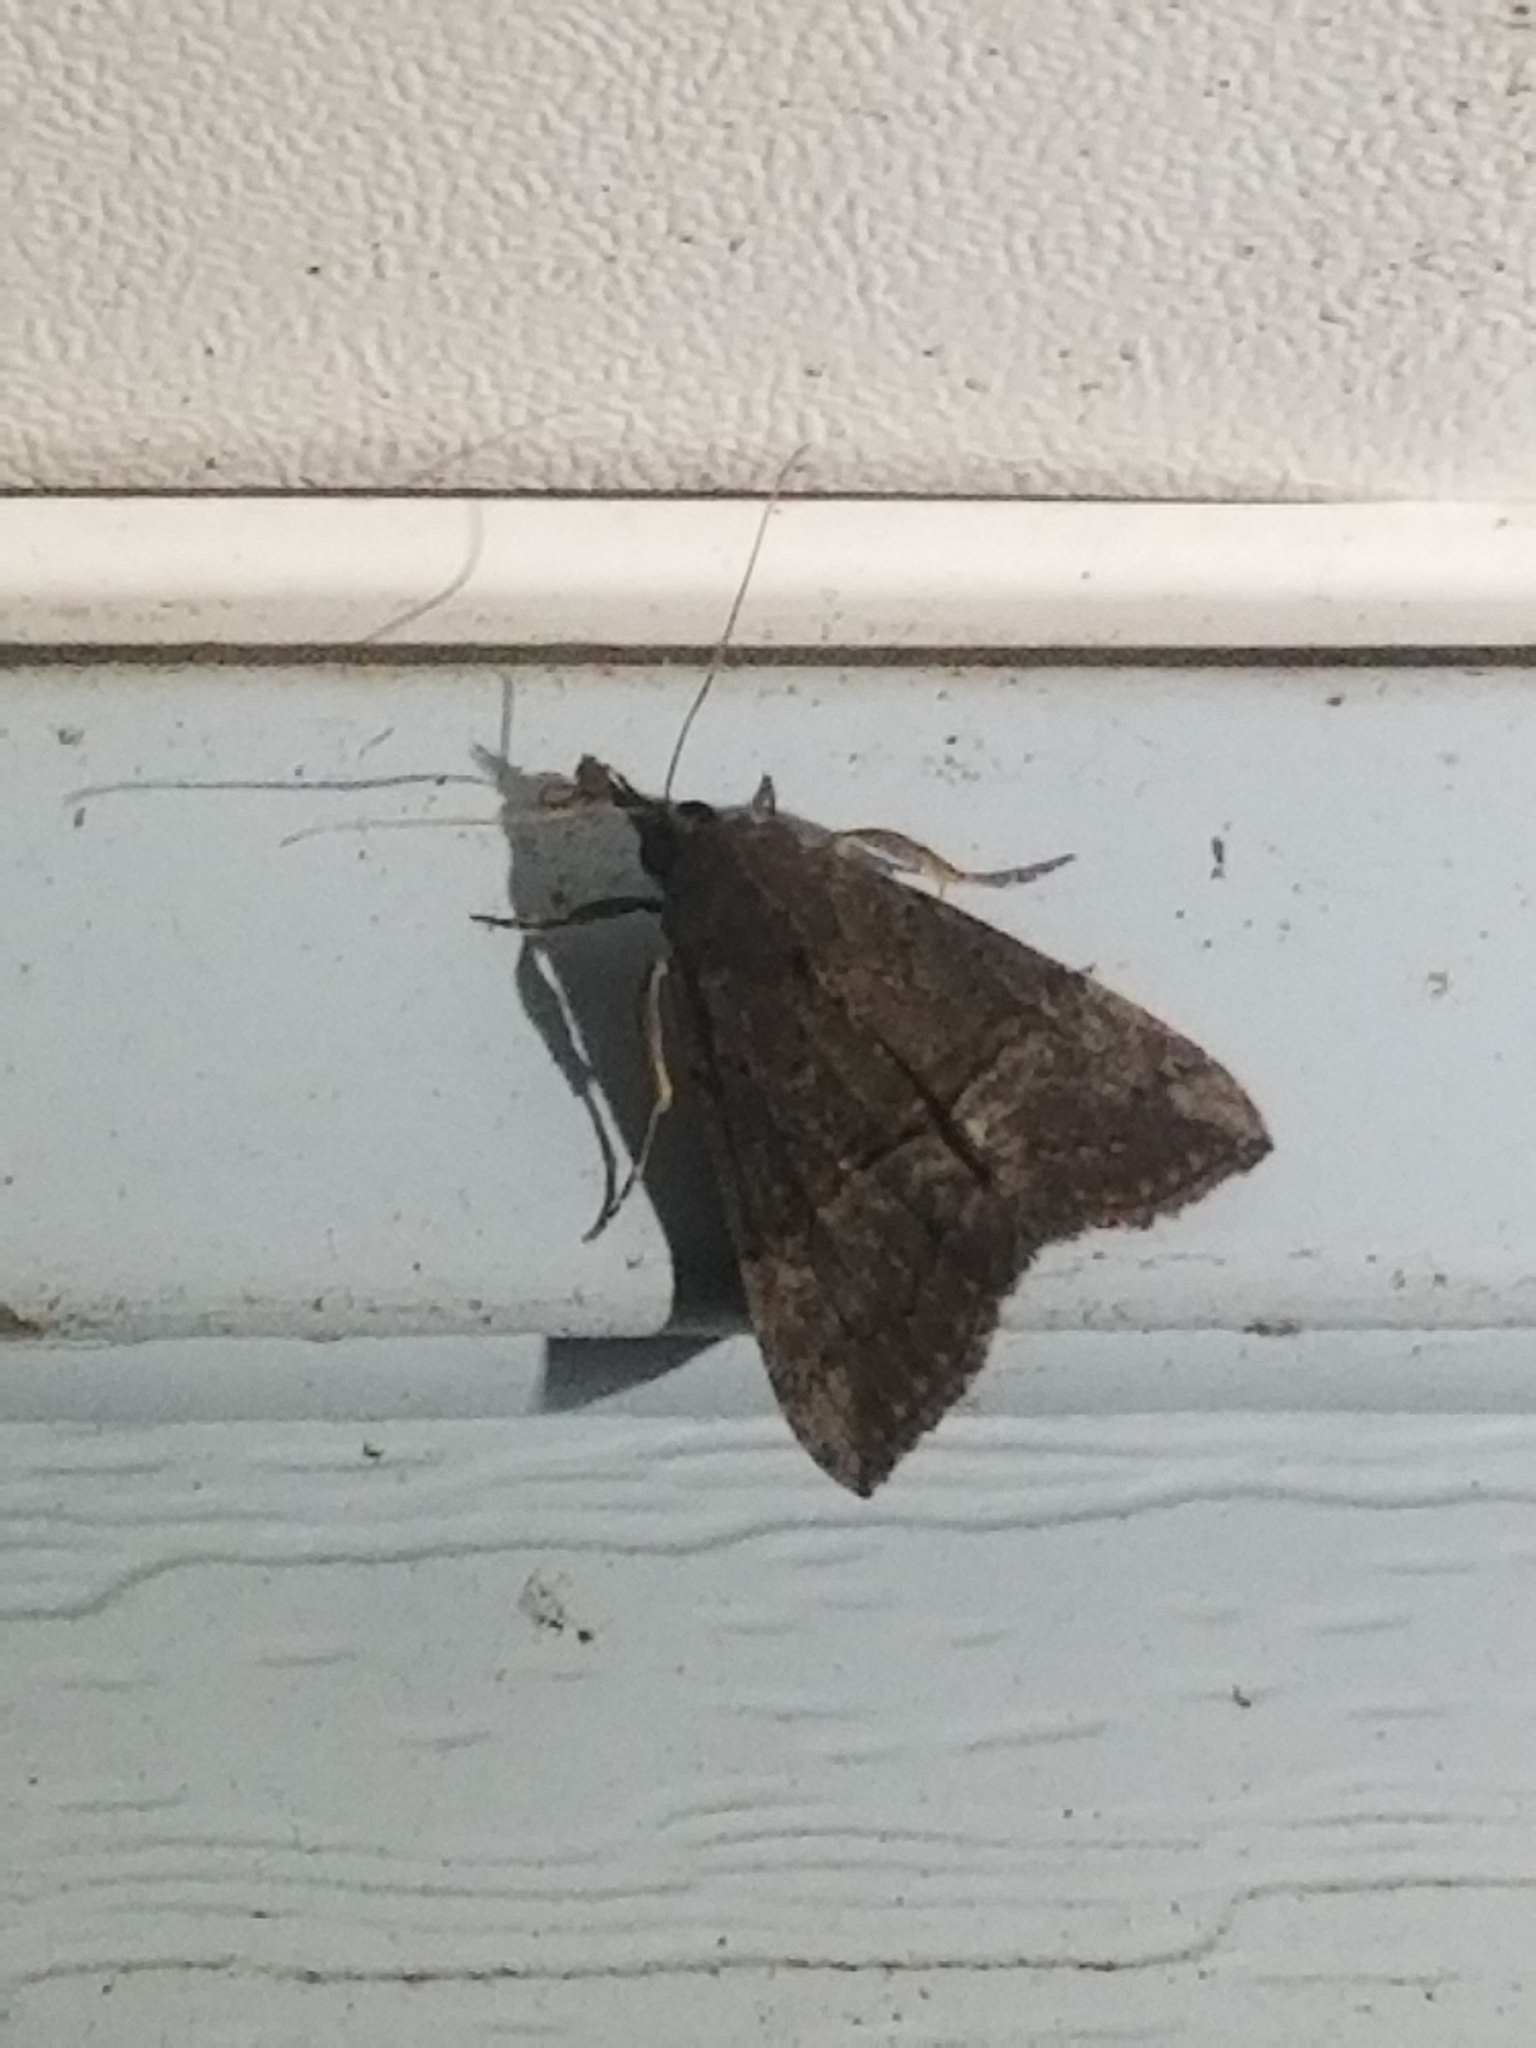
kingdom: Animalia
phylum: Arthropoda
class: Insecta
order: Lepidoptera
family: Erebidae
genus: Hypena
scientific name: Hypena scabra
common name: Green cloverworm
